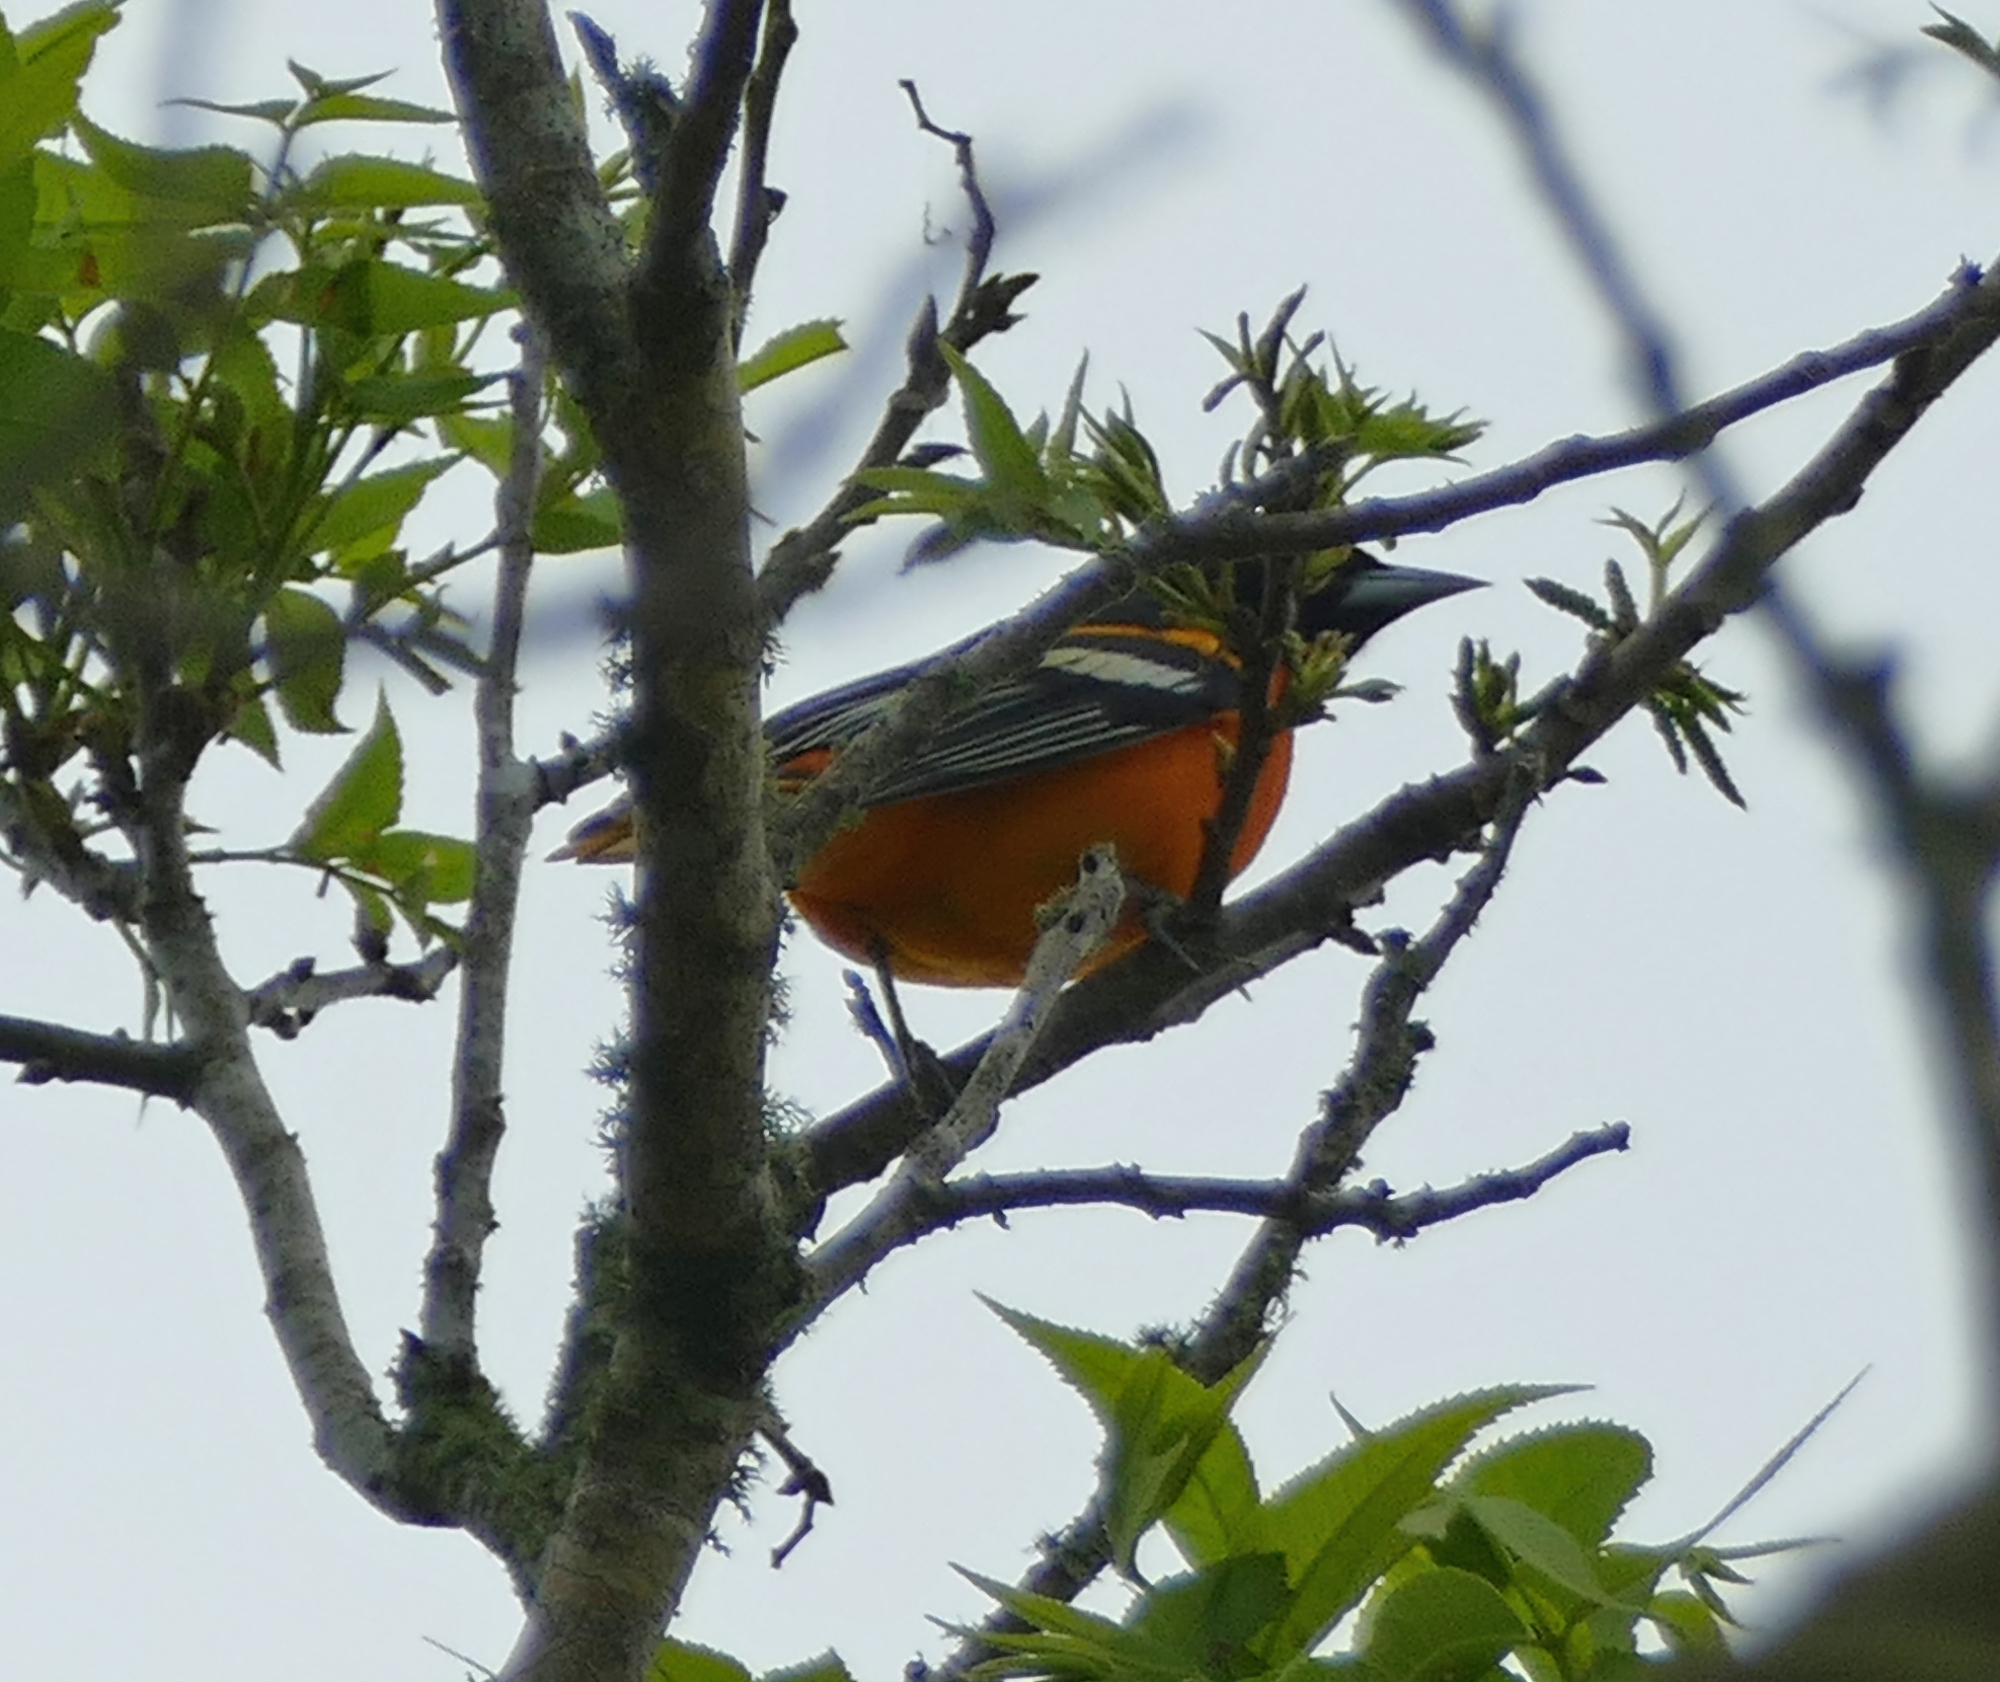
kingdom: Animalia
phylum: Chordata
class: Aves
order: Passeriformes
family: Icteridae
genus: Icterus
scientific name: Icterus galbula
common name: Baltimore oriole
